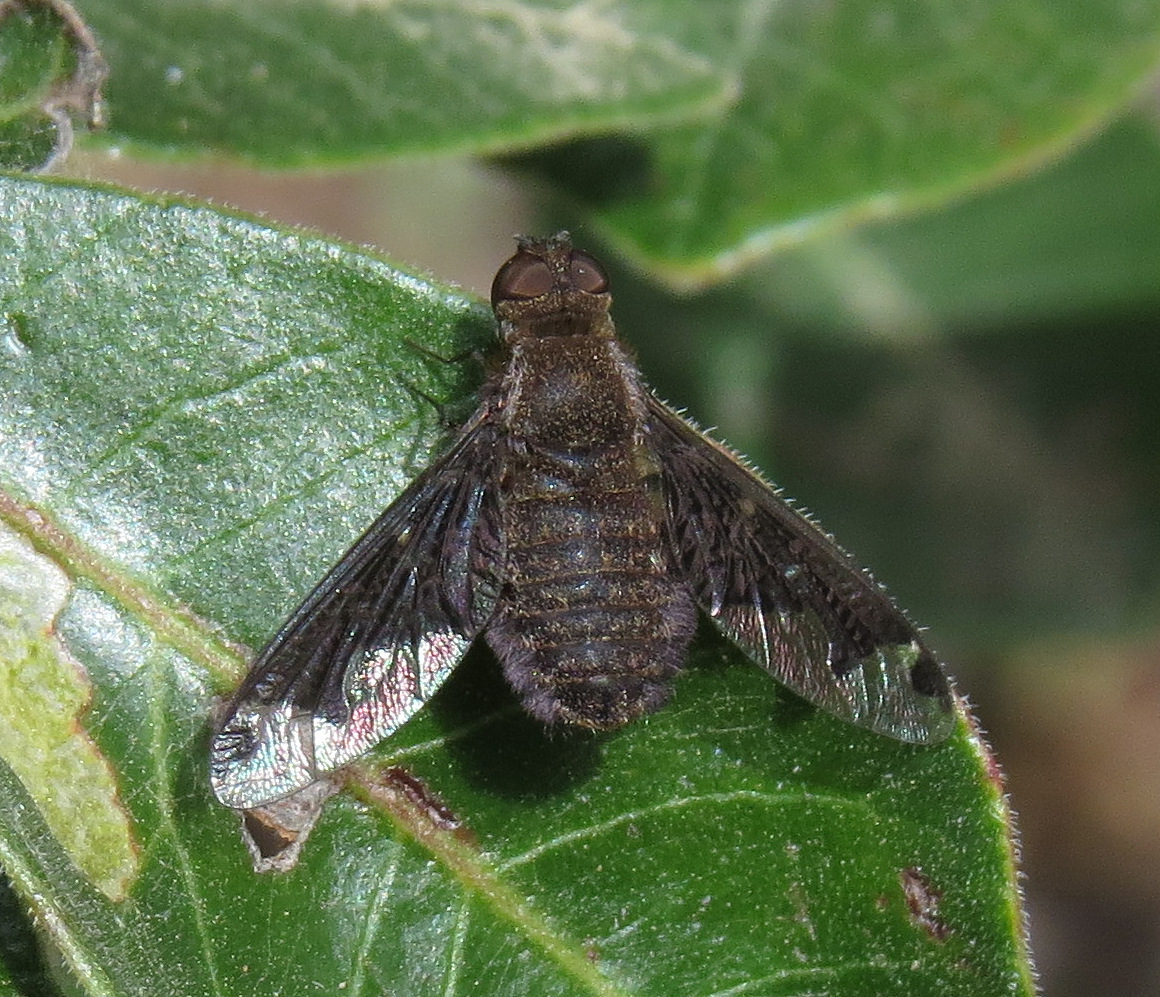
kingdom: Animalia
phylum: Arthropoda
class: Insecta
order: Diptera
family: Bombyliidae
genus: Hemipenthes
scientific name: Hemipenthes jaennickeana
